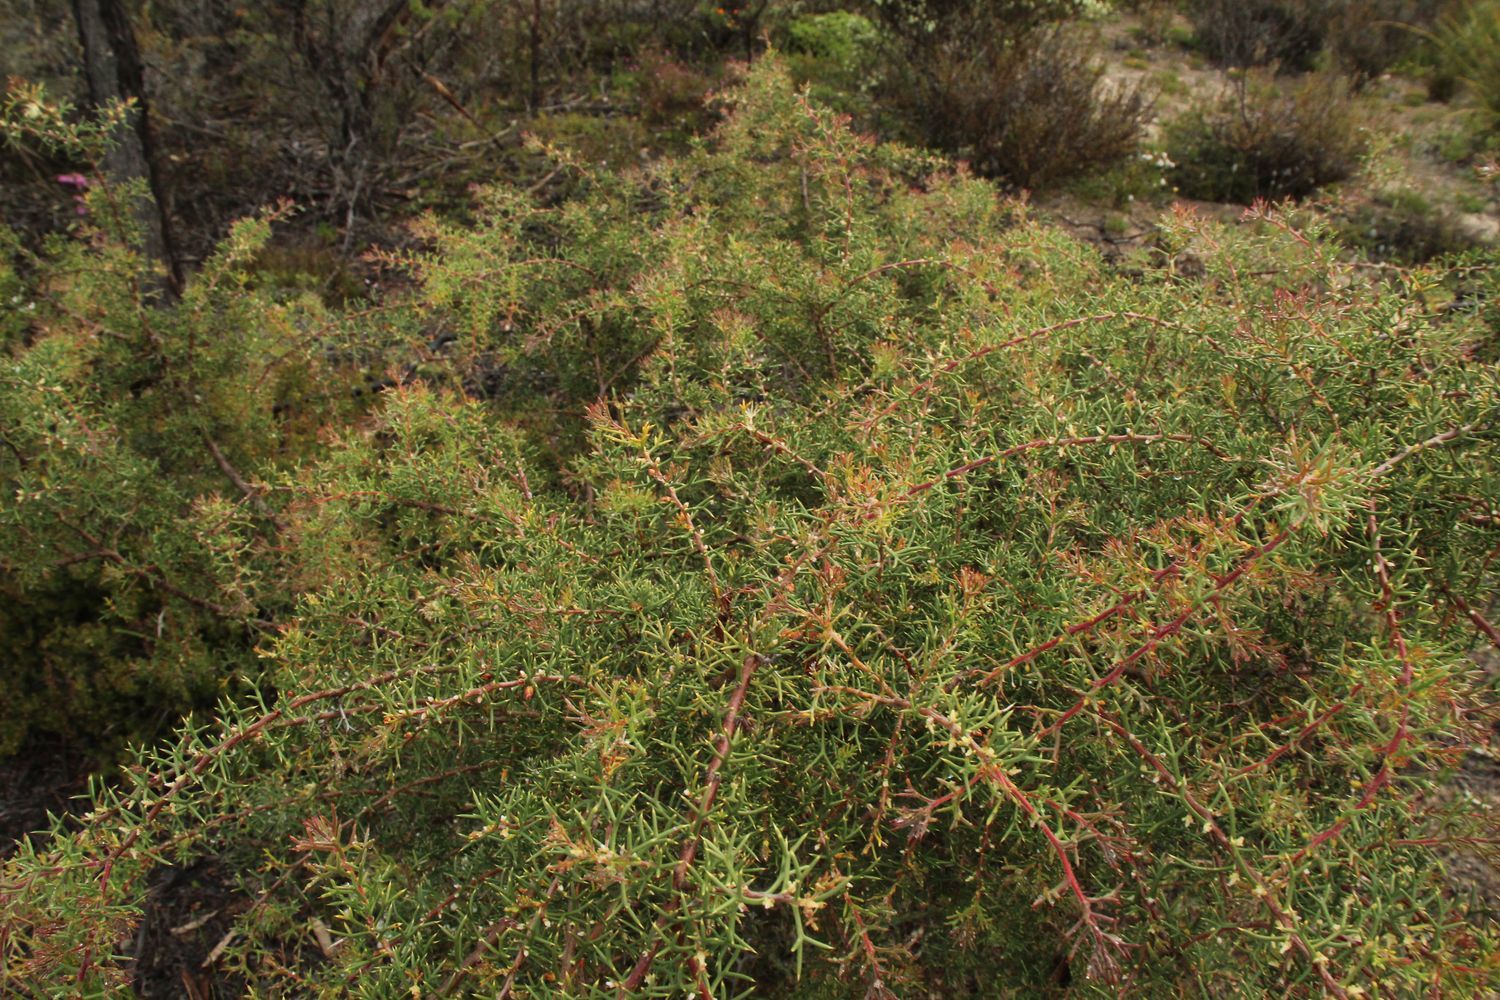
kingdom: Plantae
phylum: Tracheophyta
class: Magnoliopsida
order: Proteales
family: Proteaceae
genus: Hakea
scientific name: Hakea lissocarpha
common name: Honey bush
